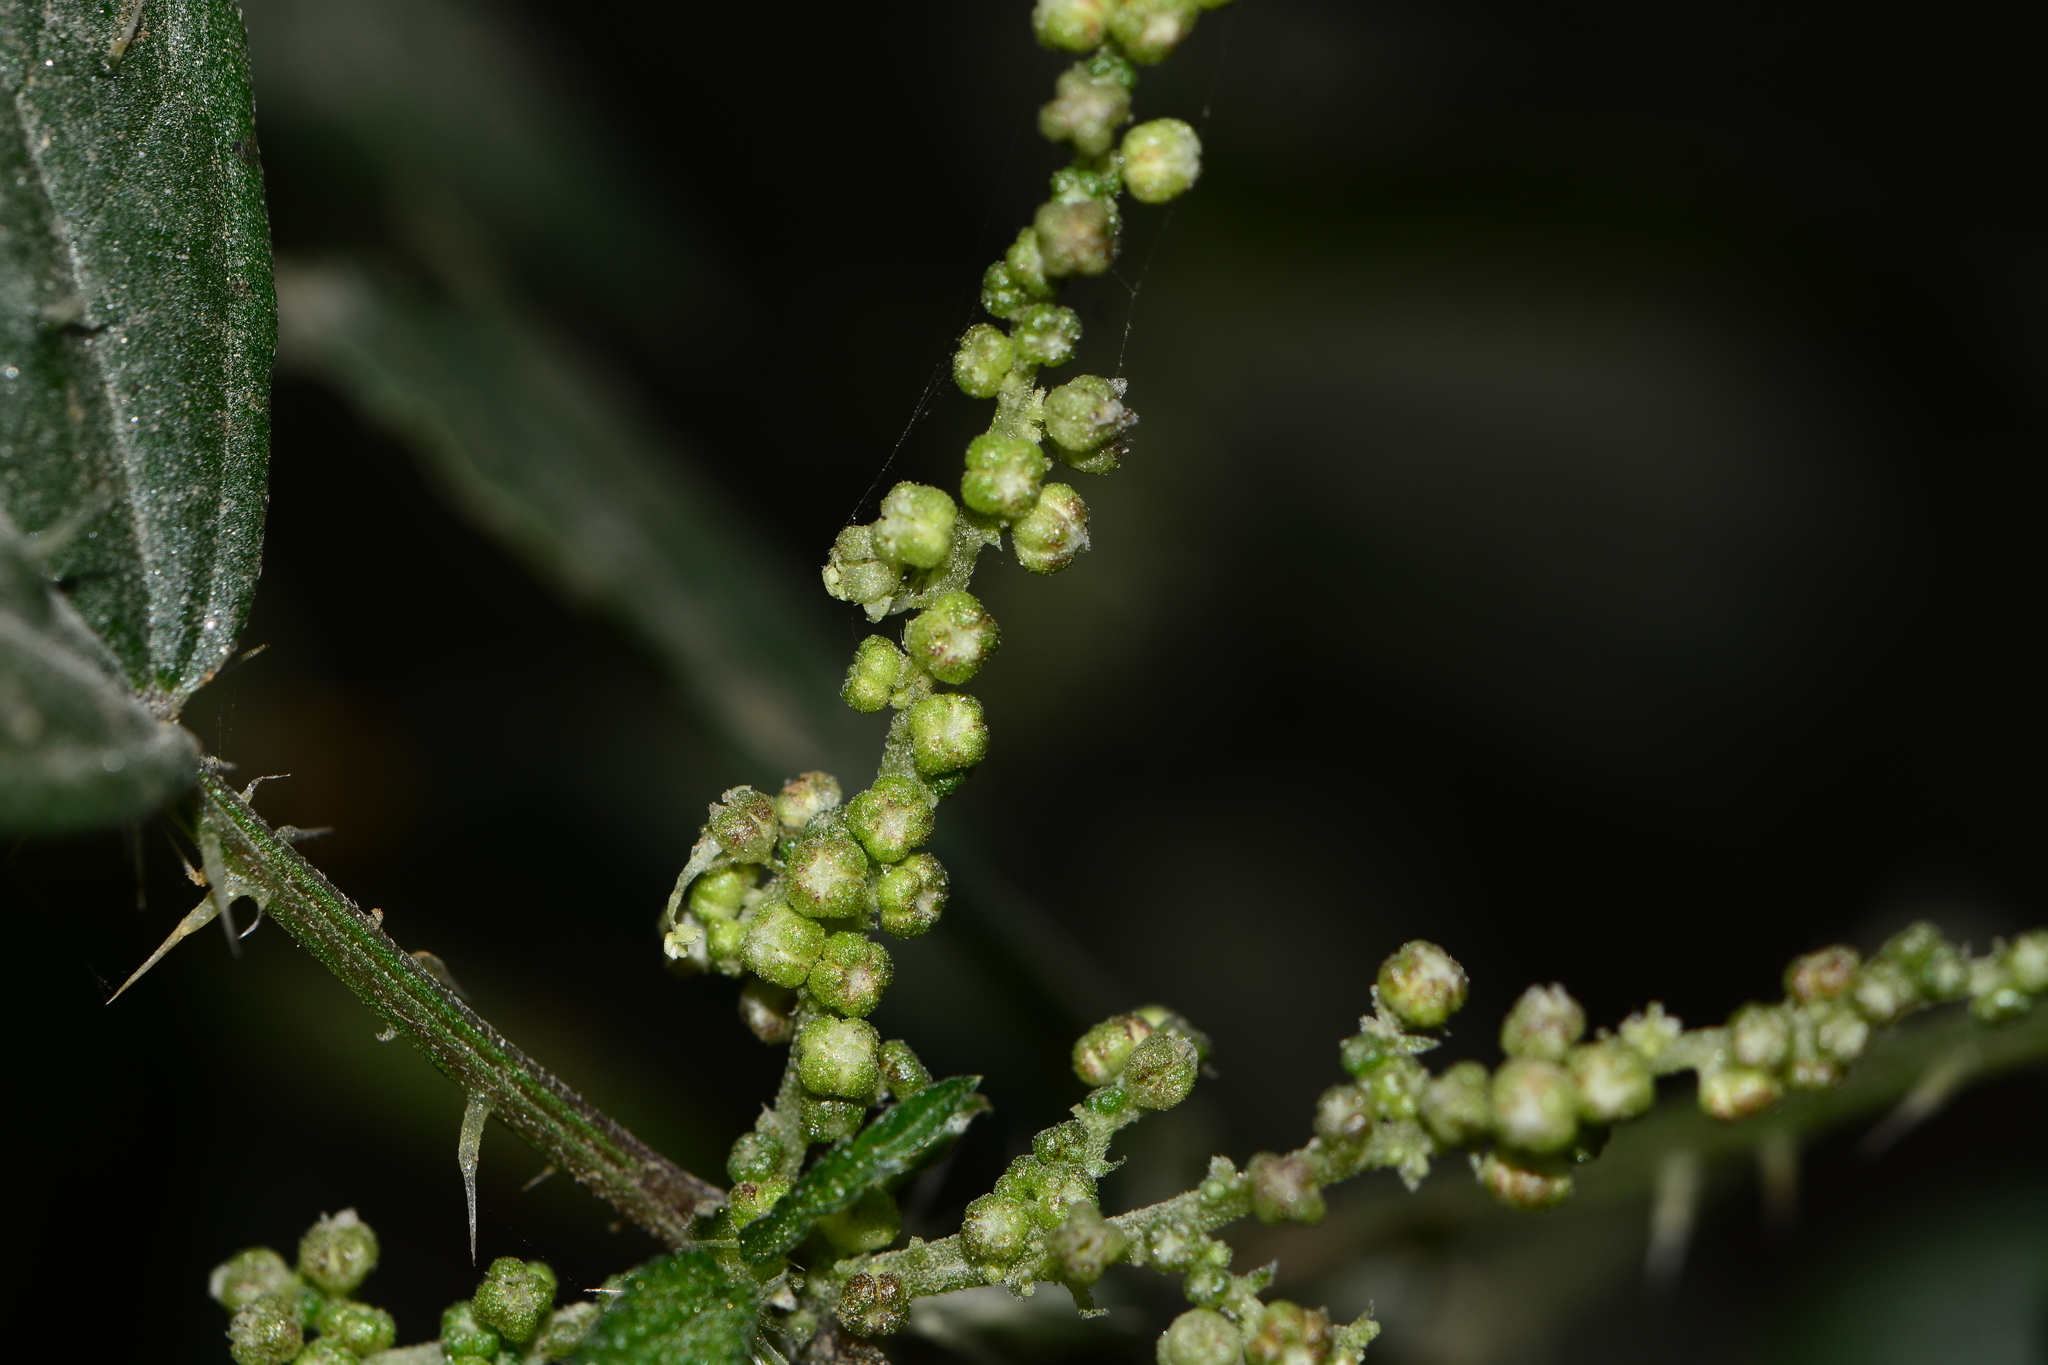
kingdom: Plantae
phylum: Tracheophyta
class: Magnoliopsida
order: Rosales
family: Urticaceae
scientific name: Urticaceae
